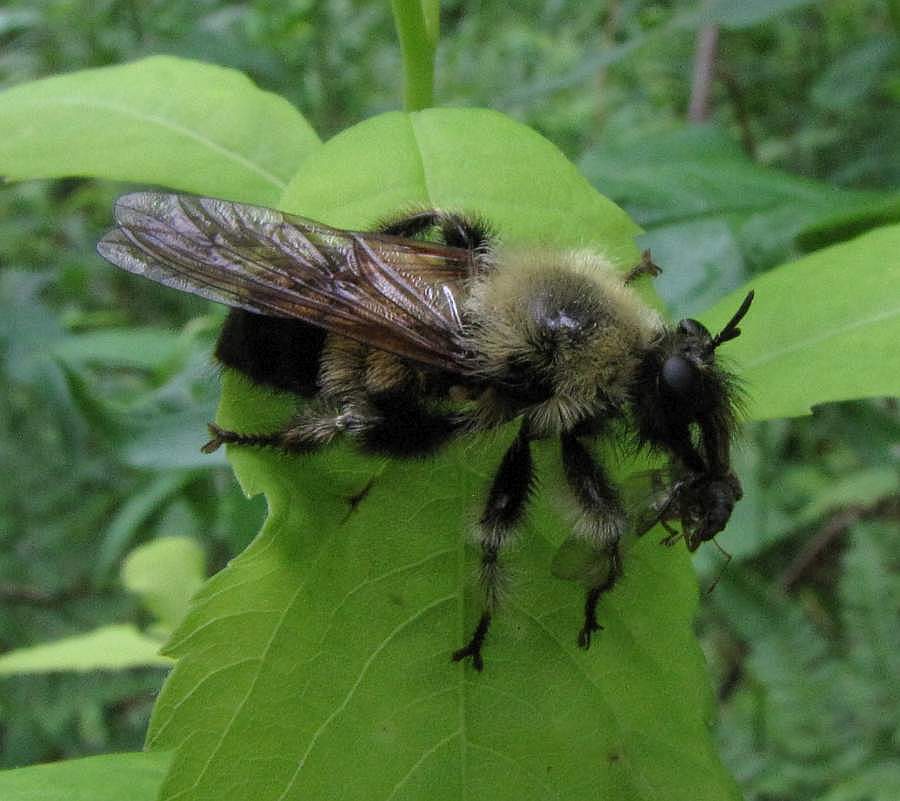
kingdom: Animalia
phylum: Arthropoda
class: Insecta
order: Diptera
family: Asilidae
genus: Laphria
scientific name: Laphria sacrator
